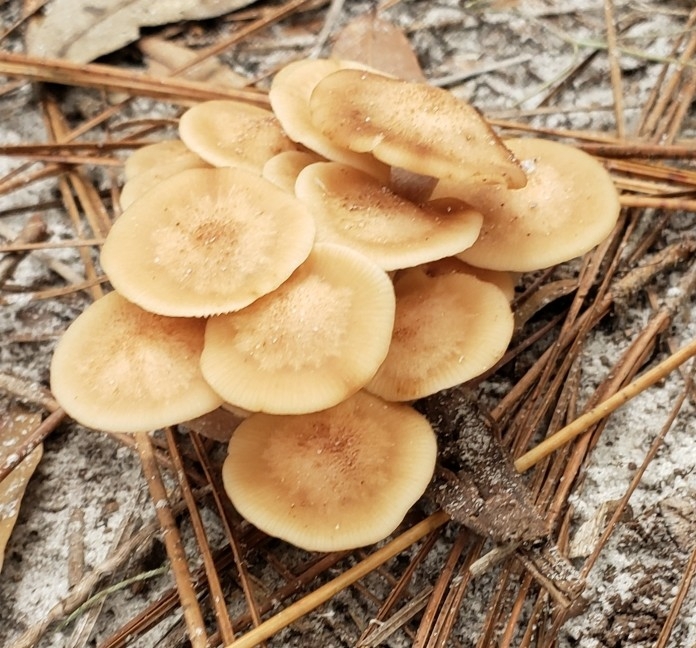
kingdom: Fungi
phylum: Basidiomycota
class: Agaricomycetes
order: Agaricales
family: Physalacriaceae
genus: Desarmillaria
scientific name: Desarmillaria caespitosa
